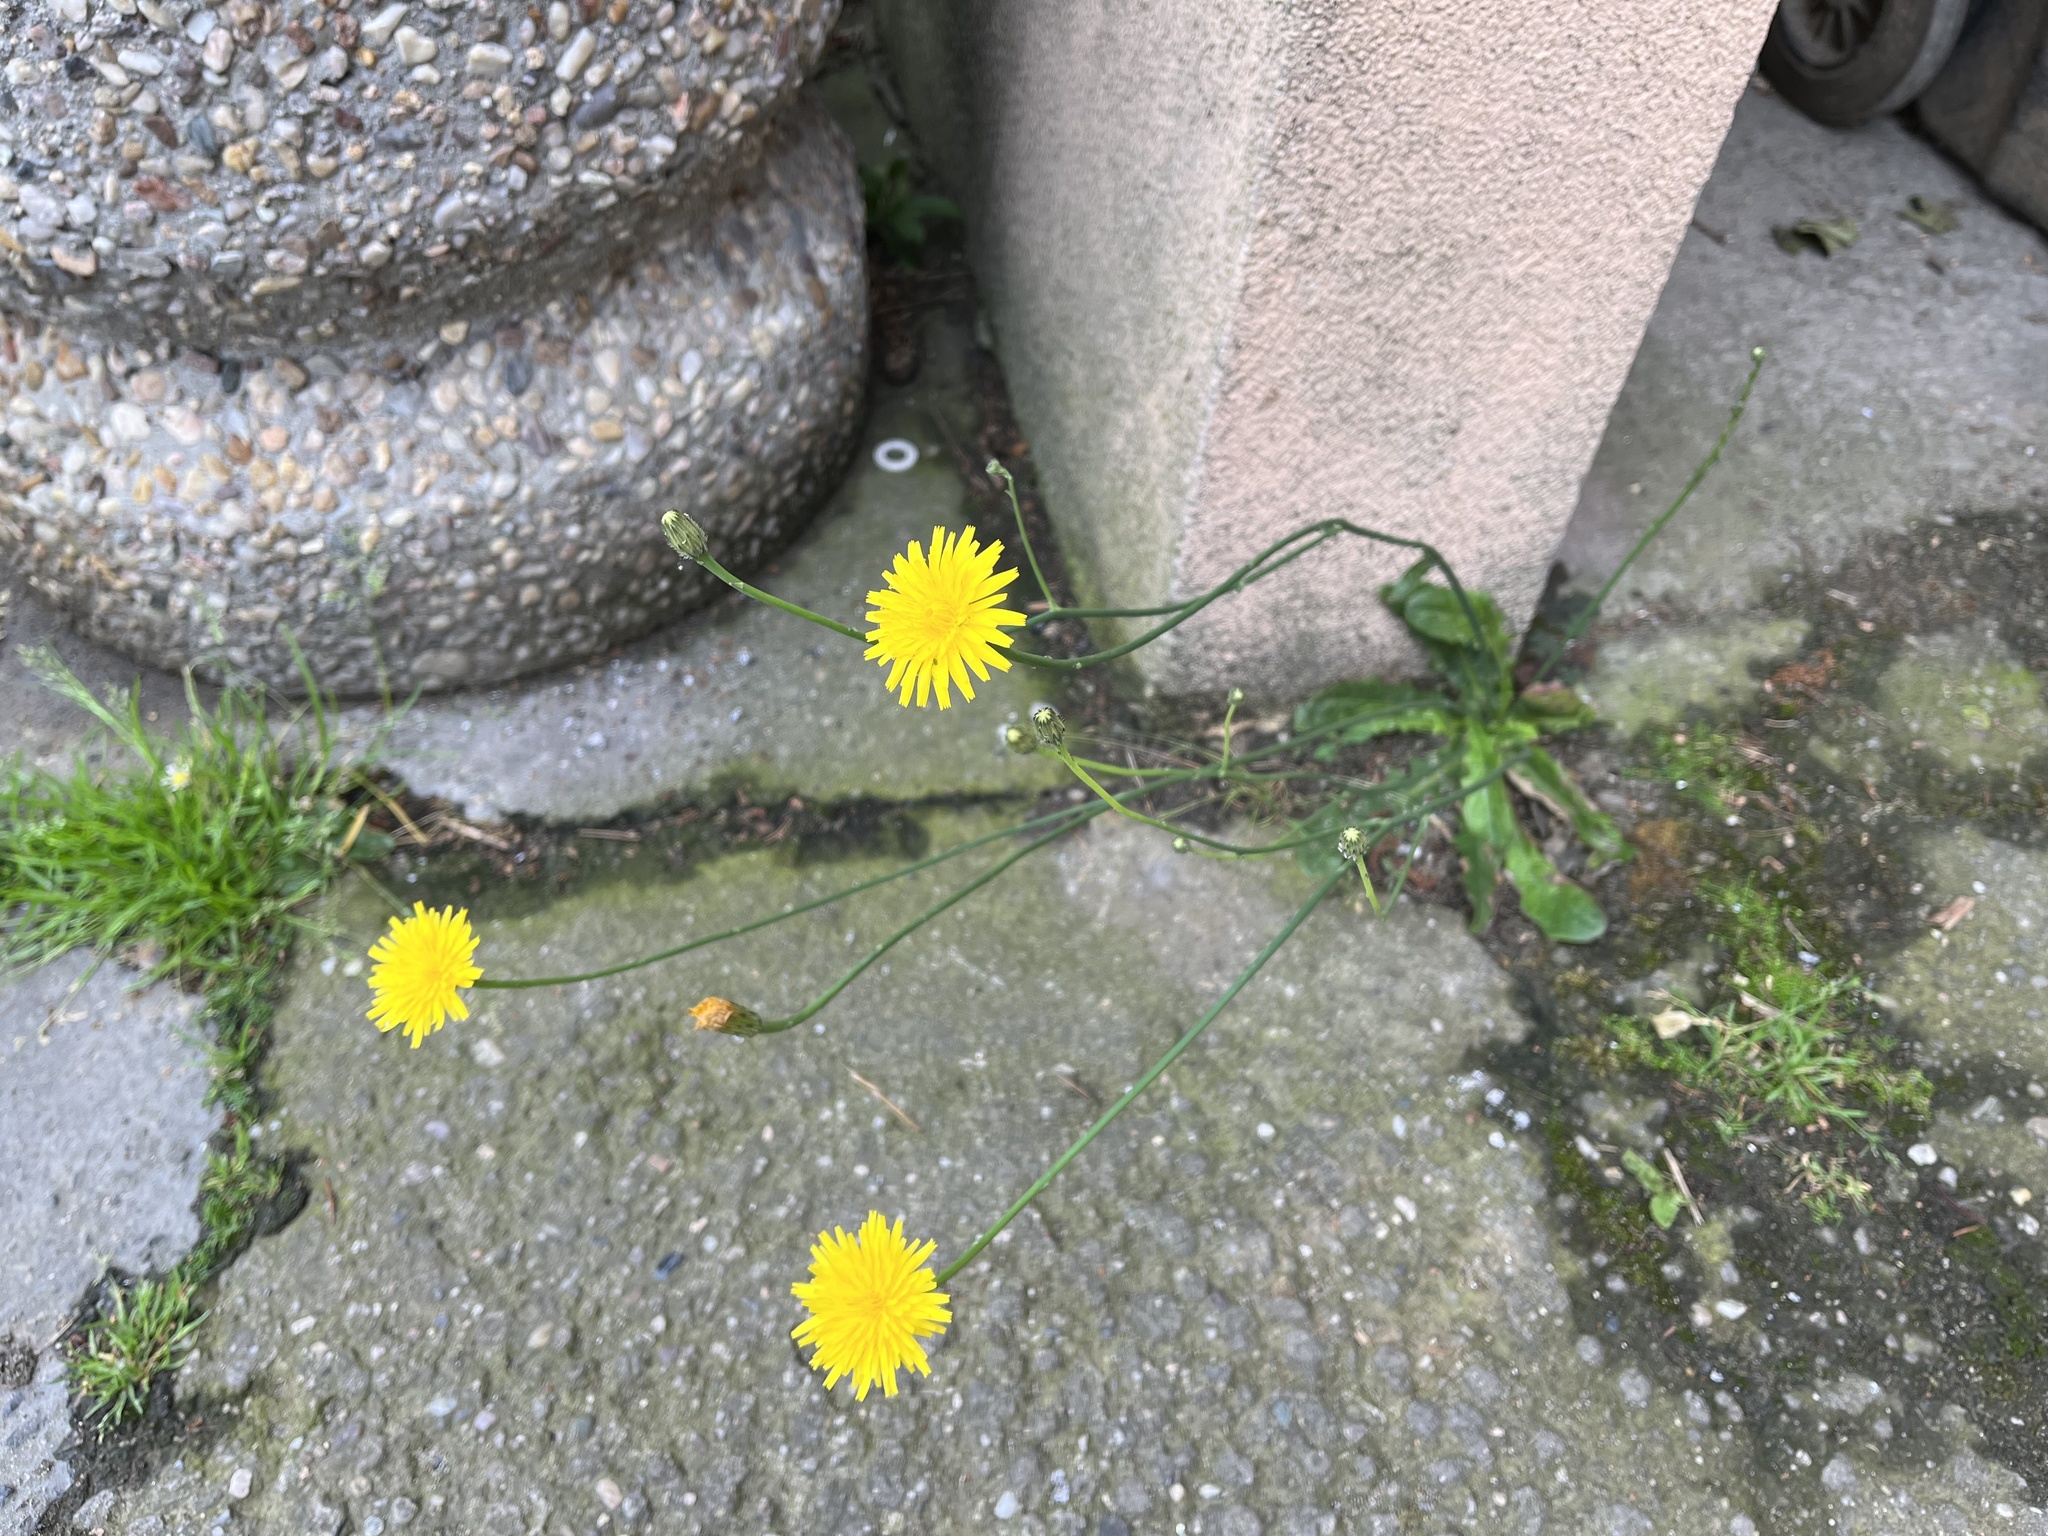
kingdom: Plantae
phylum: Tracheophyta
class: Magnoliopsida
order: Asterales
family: Asteraceae
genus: Hypochaeris
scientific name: Hypochaeris radicata
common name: Flatweed
